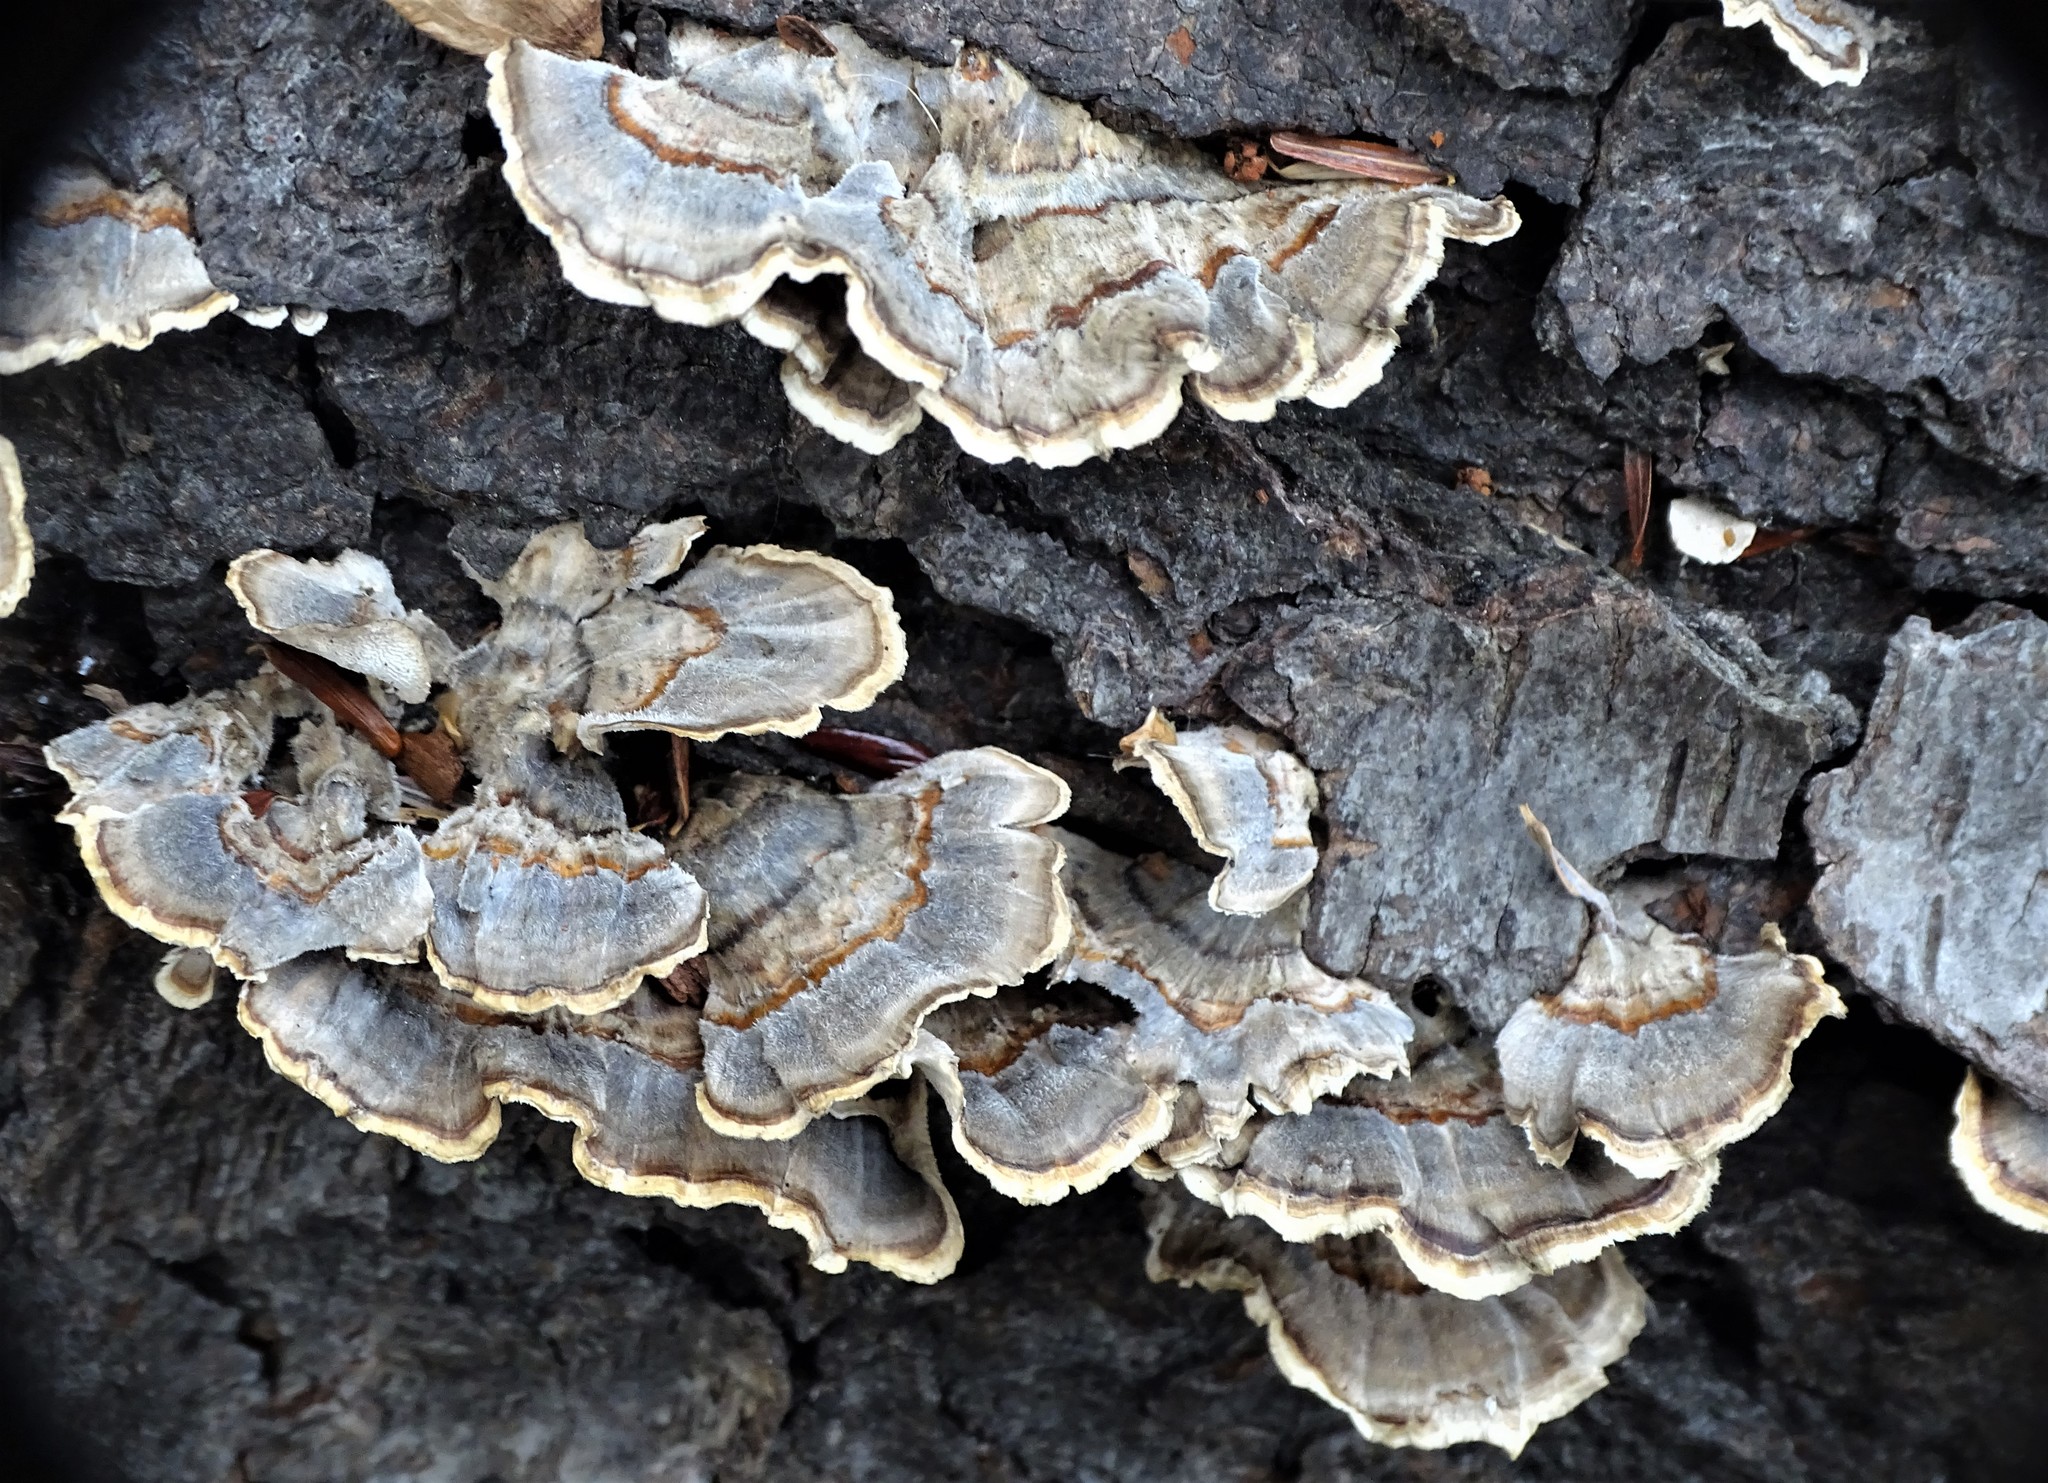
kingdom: Fungi
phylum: Basidiomycota
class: Agaricomycetes
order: Polyporales
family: Polyporaceae
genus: Trametes
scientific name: Trametes versicolor
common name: Turkeytail
